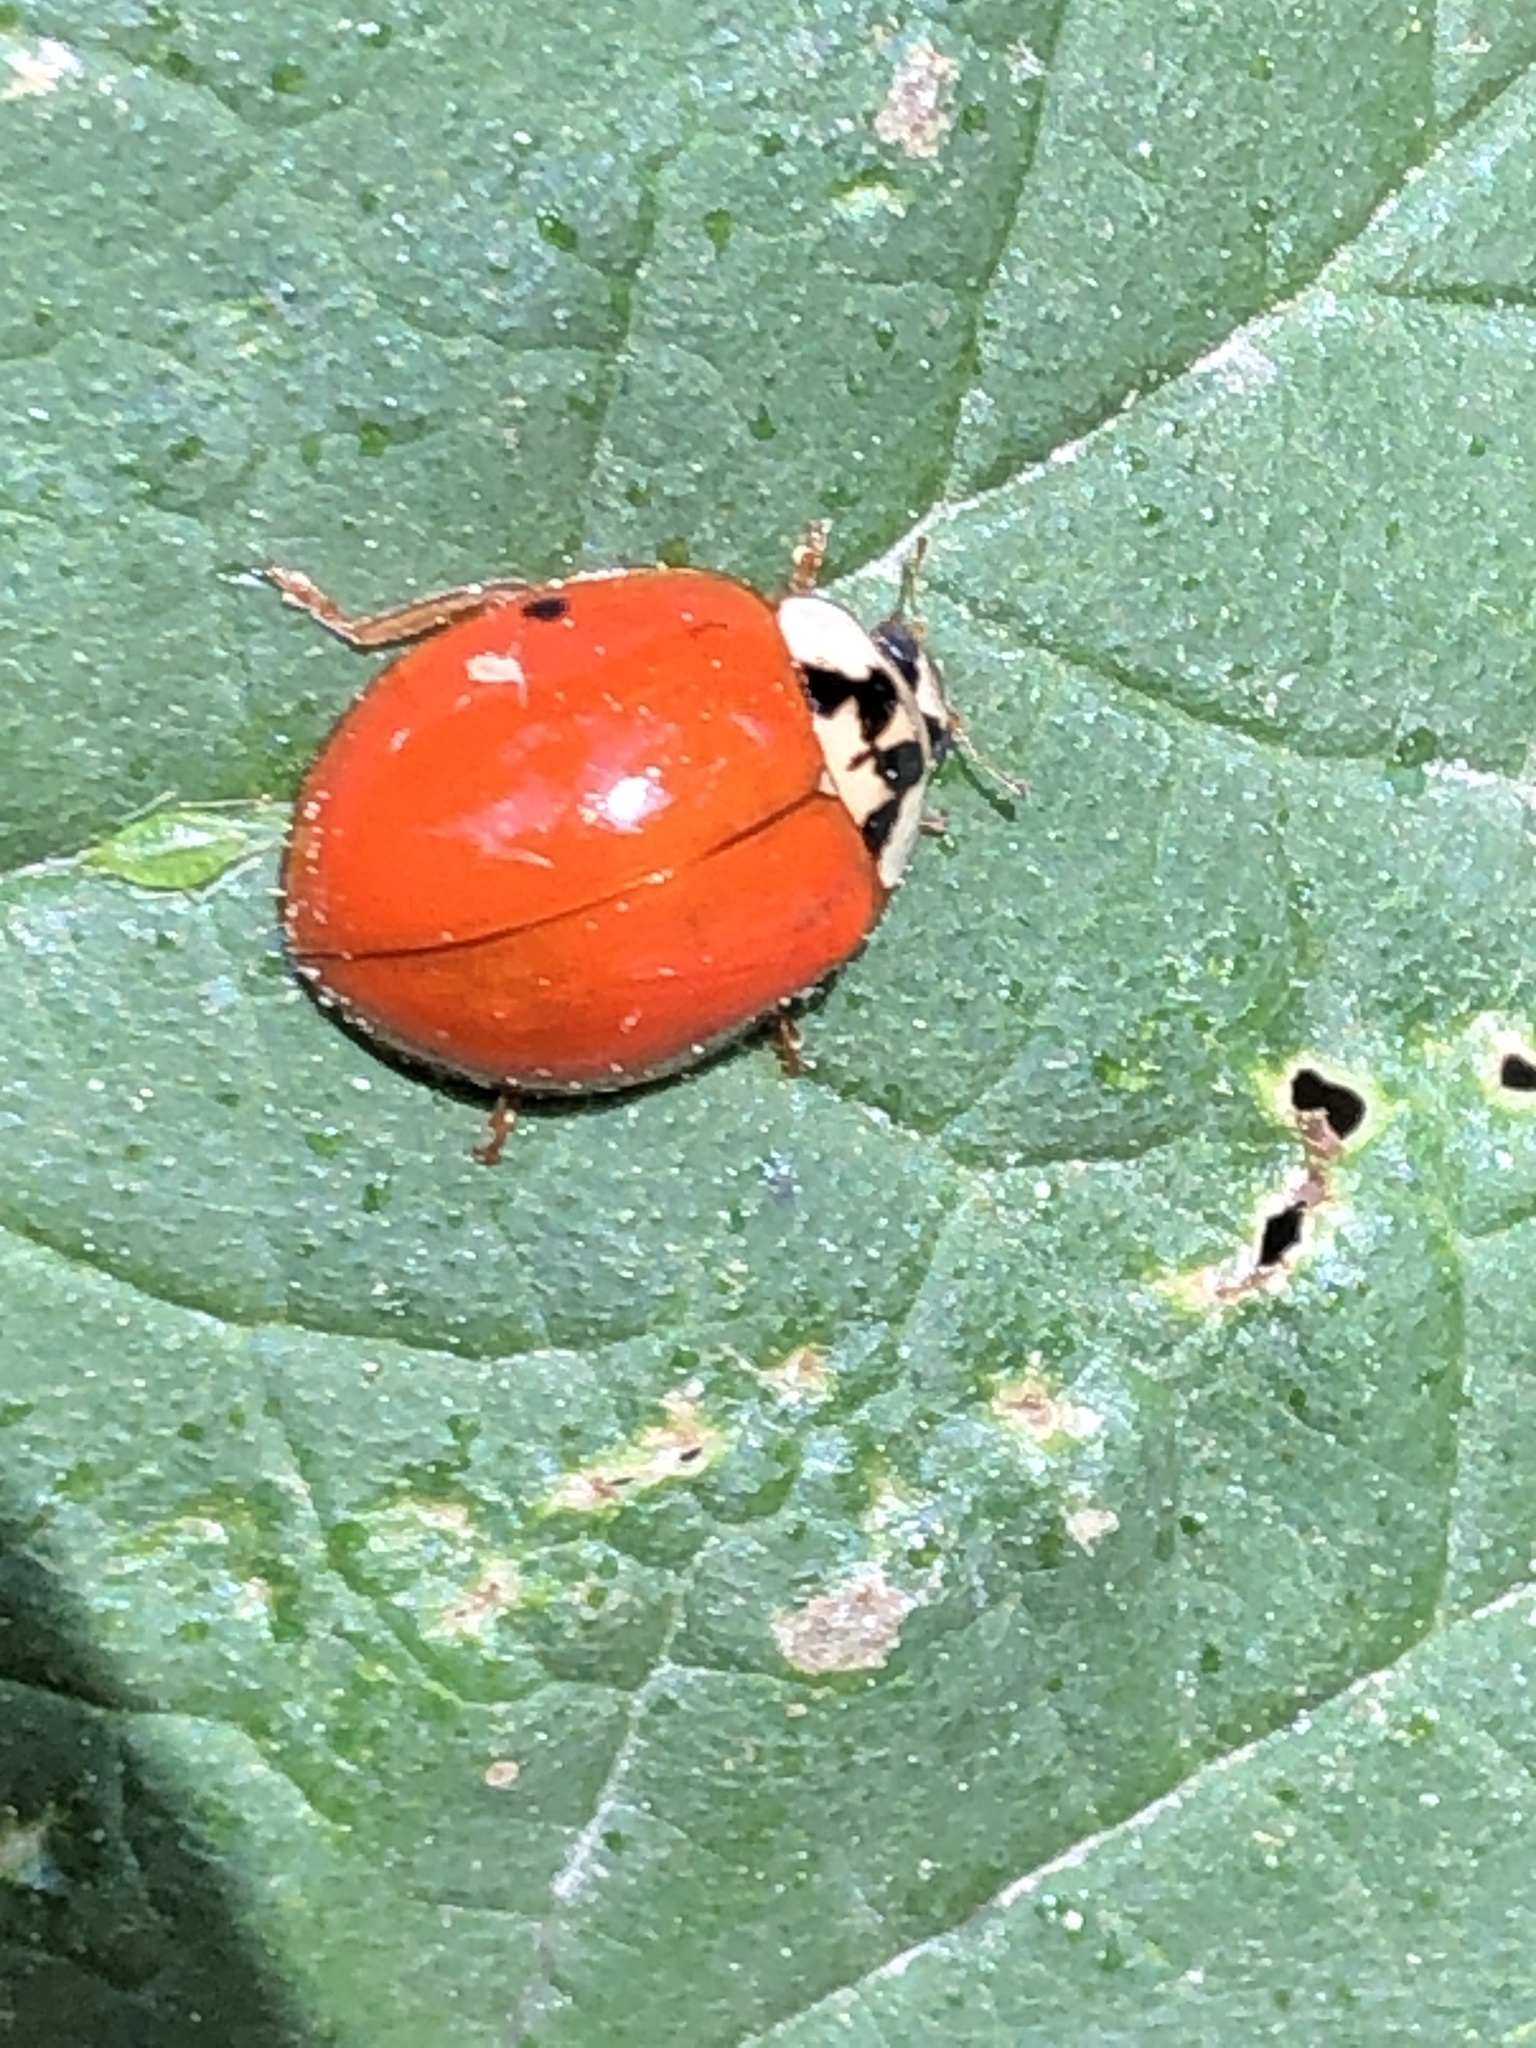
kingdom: Animalia
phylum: Arthropoda
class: Insecta
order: Coleoptera
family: Coccinellidae
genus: Harmonia
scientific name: Harmonia axyridis
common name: Harlequin ladybird
